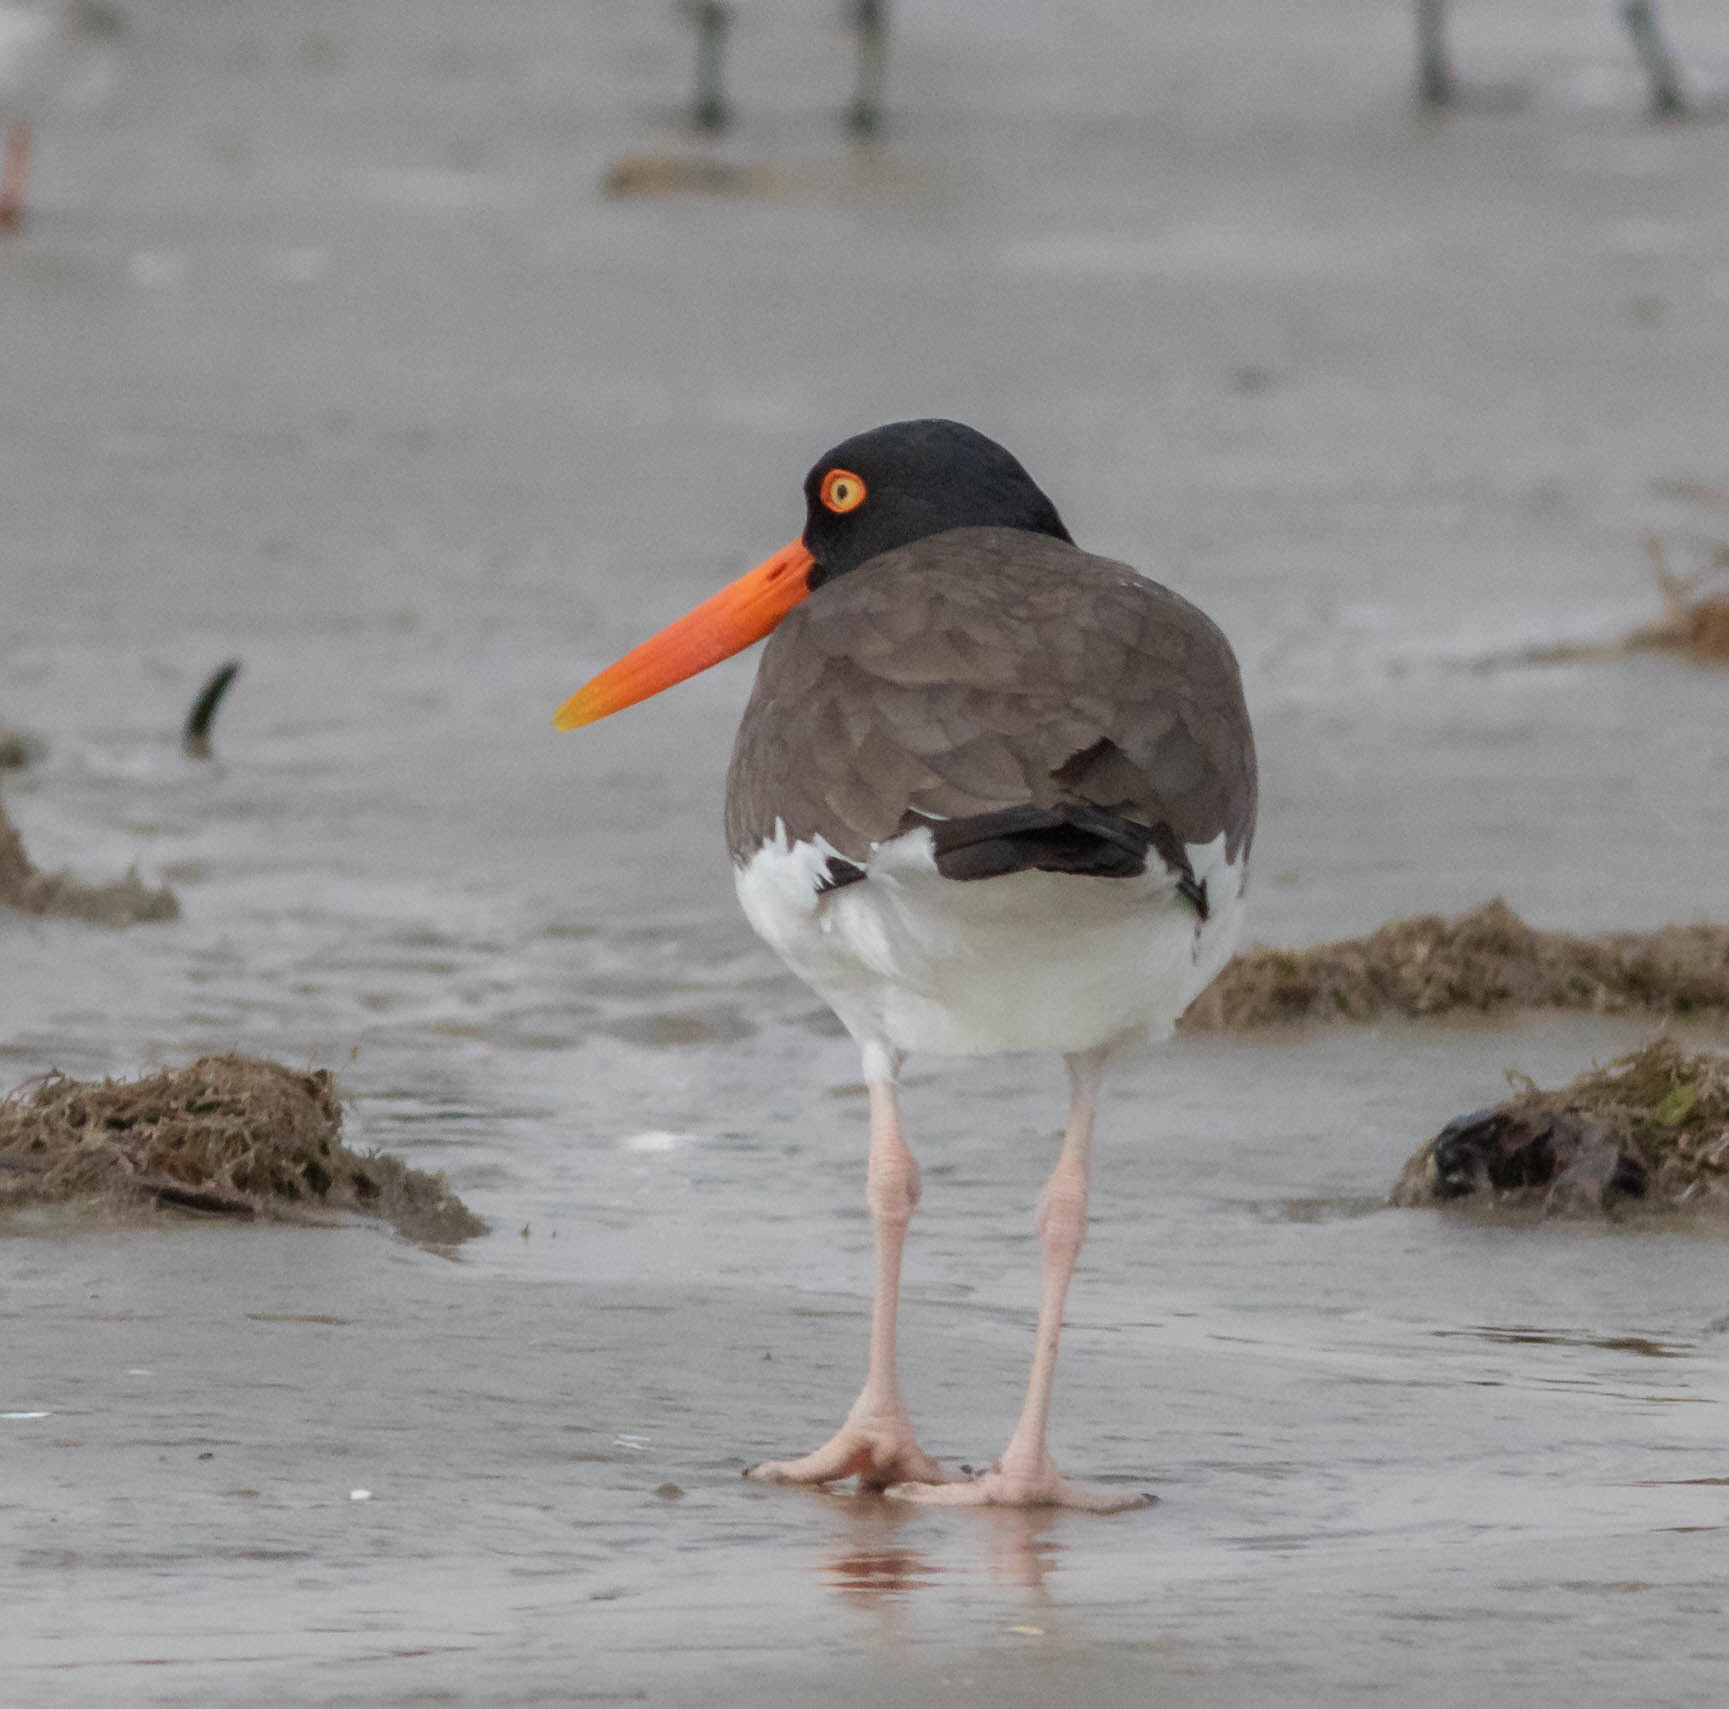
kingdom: Animalia
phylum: Chordata
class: Aves
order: Charadriiformes
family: Haematopodidae
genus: Haematopus
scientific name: Haematopus palliatus
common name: American oystercatcher
